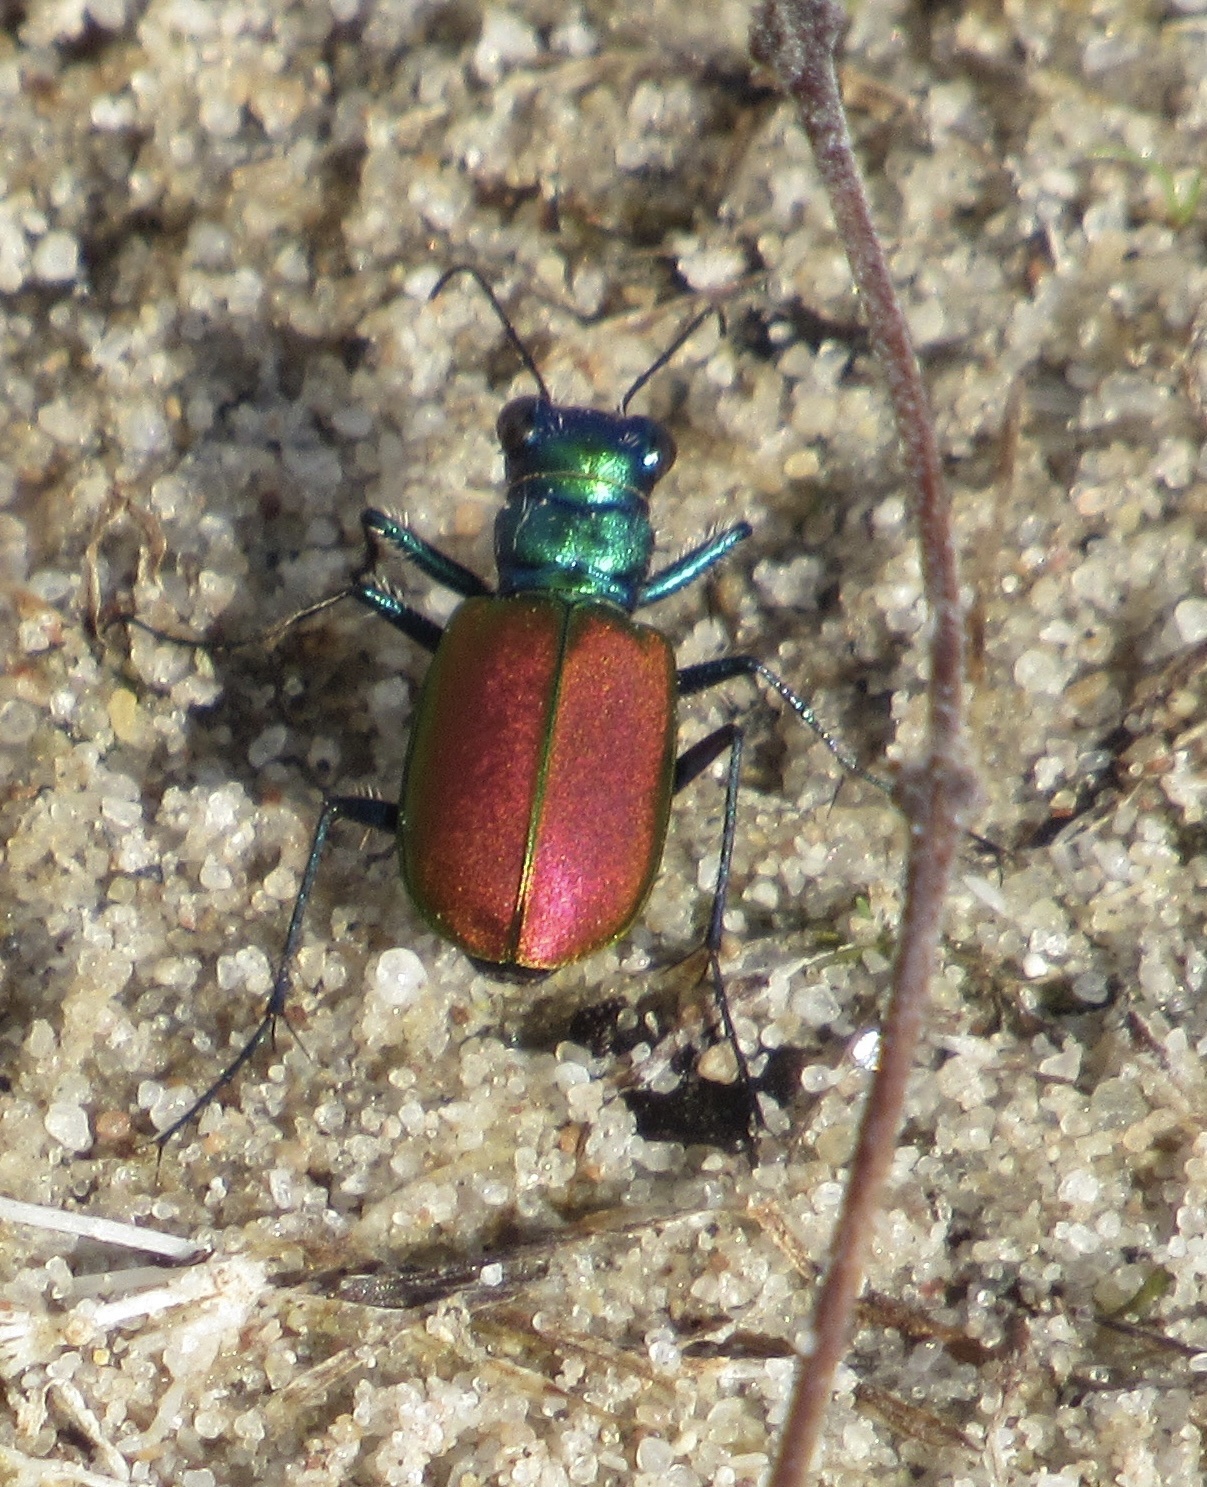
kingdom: Animalia
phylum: Arthropoda
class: Insecta
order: Coleoptera
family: Carabidae
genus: Cicindela
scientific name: Cicindela scutellaris
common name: Festive tiger beetle
